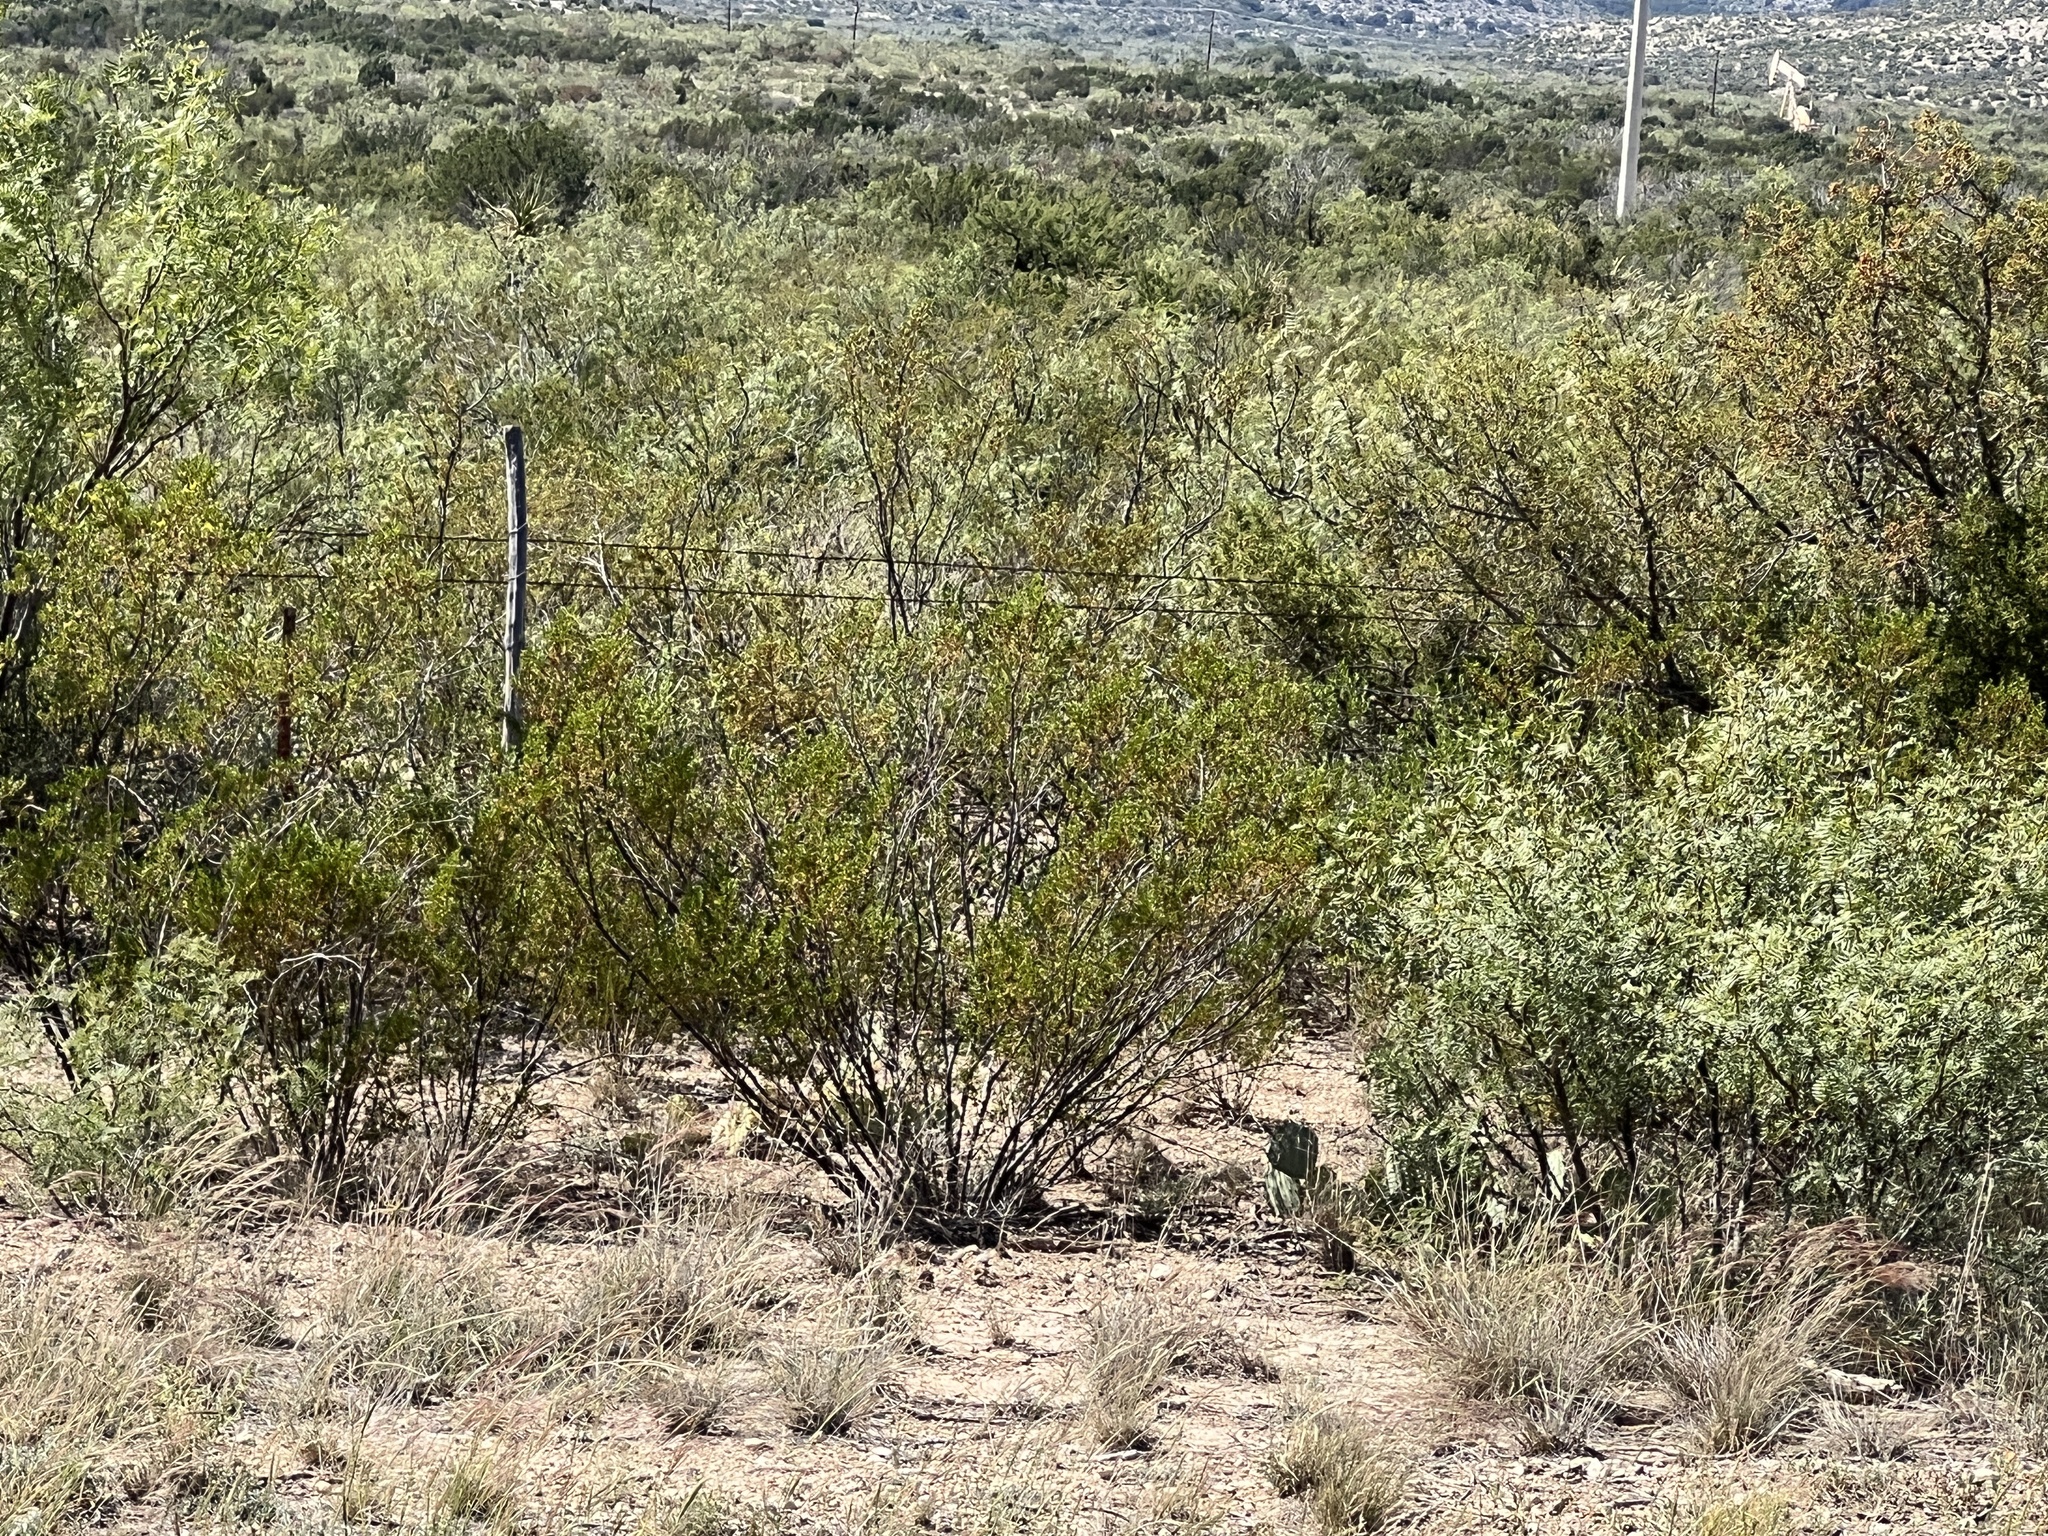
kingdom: Plantae
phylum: Tracheophyta
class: Magnoliopsida
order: Zygophyllales
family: Zygophyllaceae
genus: Larrea
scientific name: Larrea tridentata
